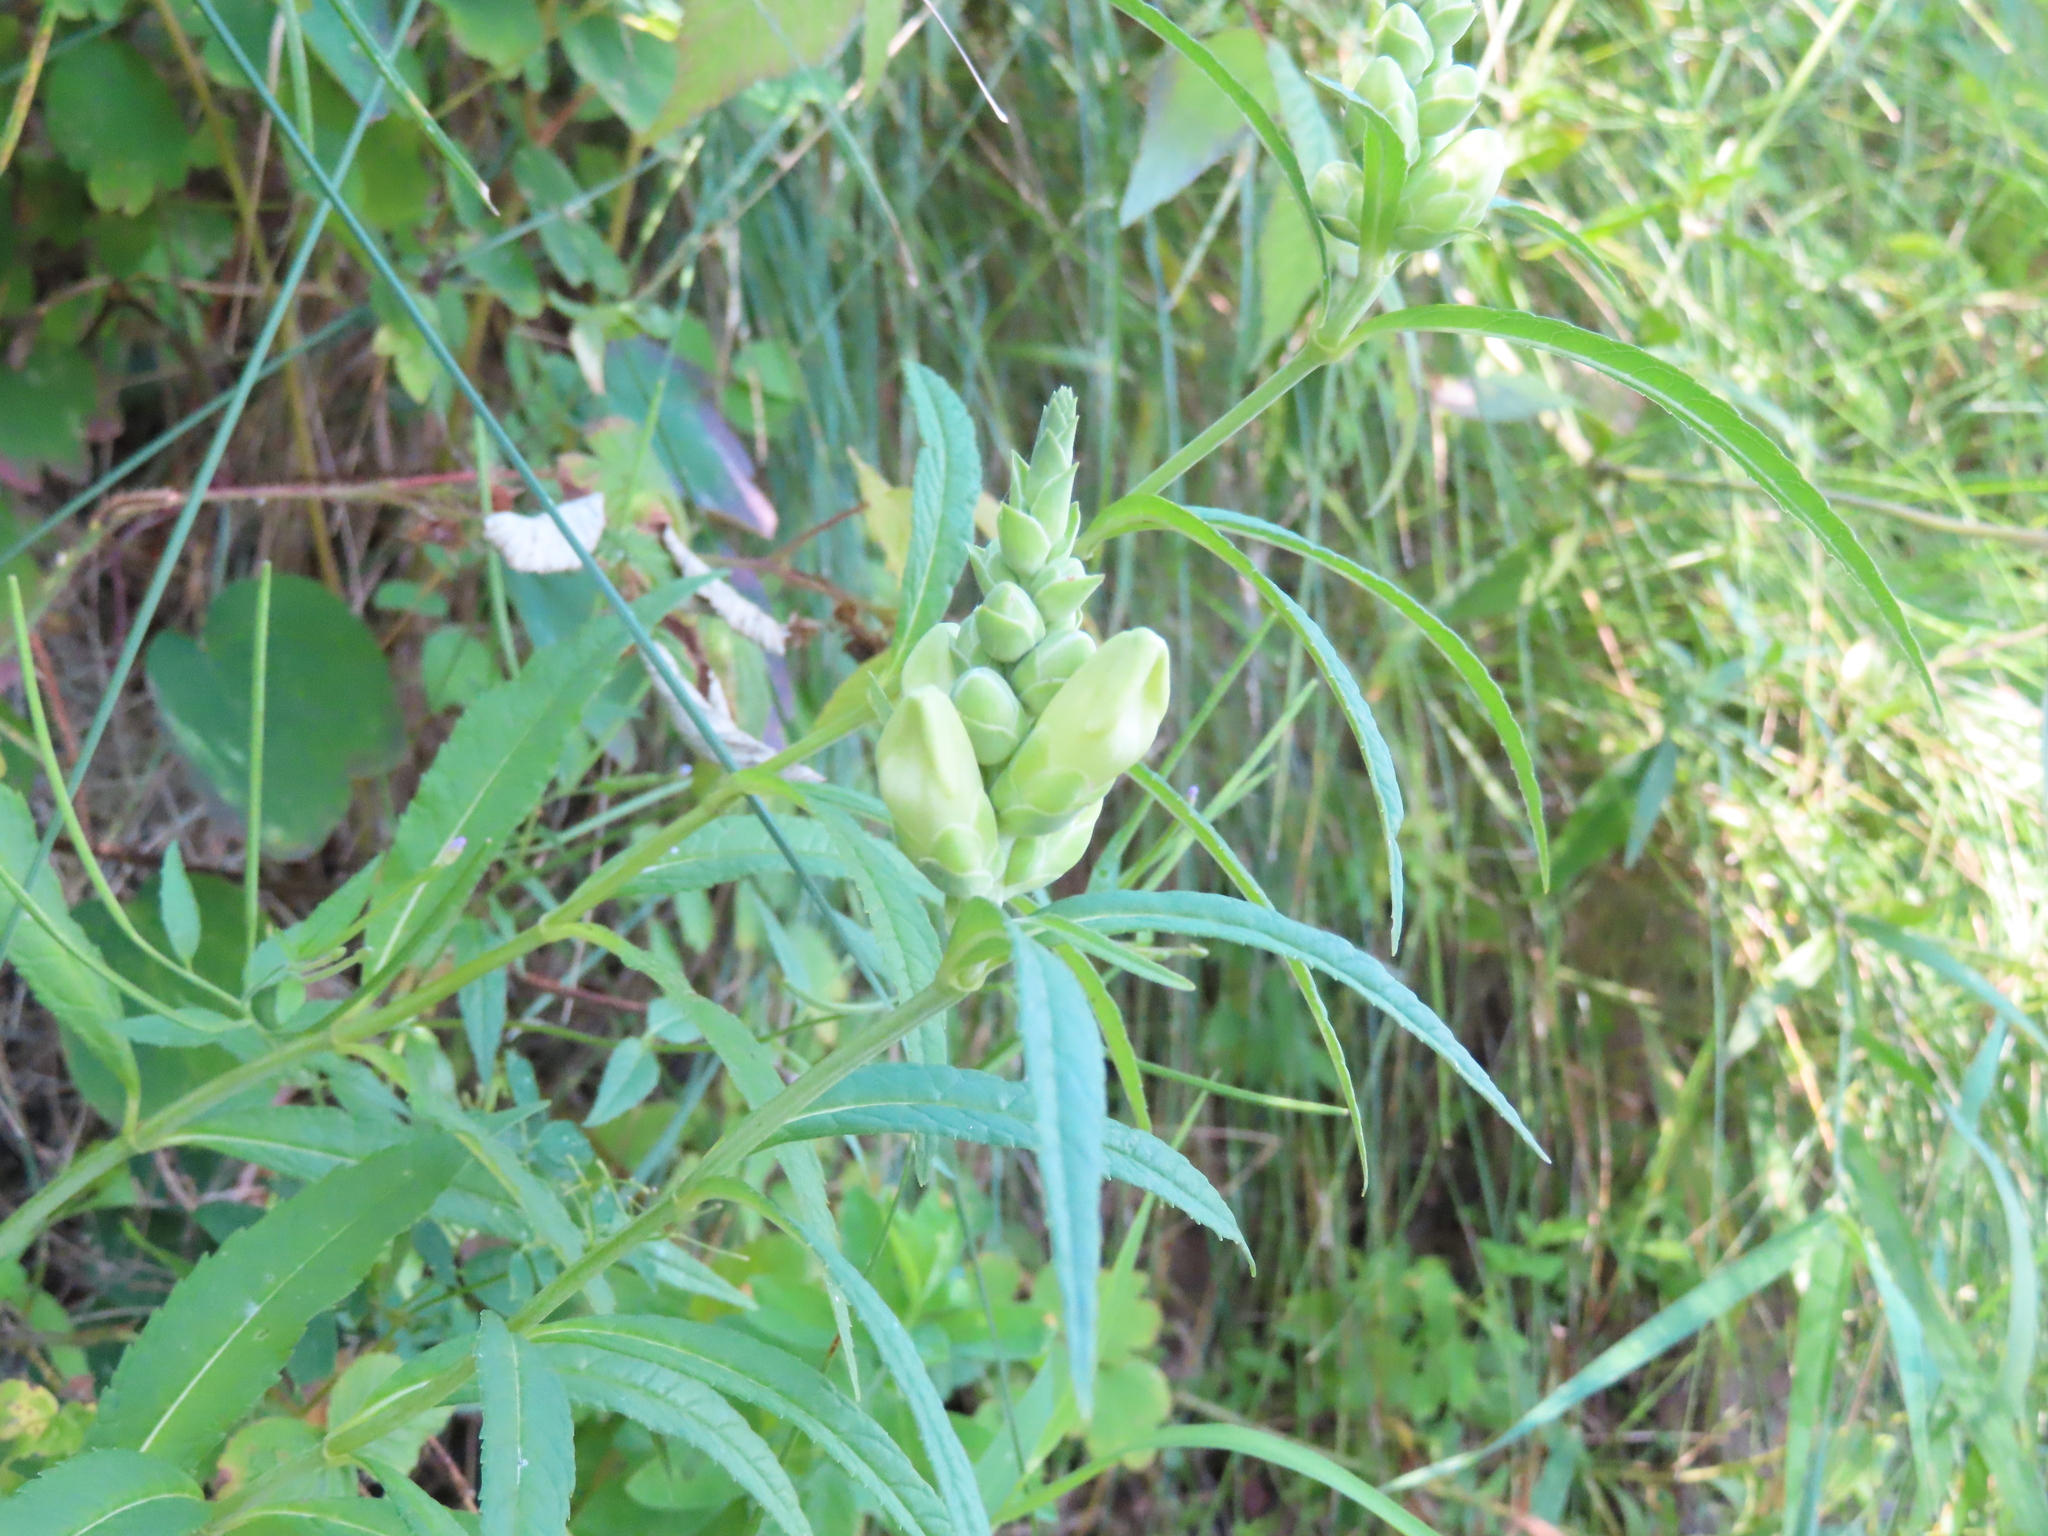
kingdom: Plantae
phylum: Tracheophyta
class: Magnoliopsida
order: Lamiales
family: Plantaginaceae
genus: Chelone
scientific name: Chelone glabra
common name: Snakehead
